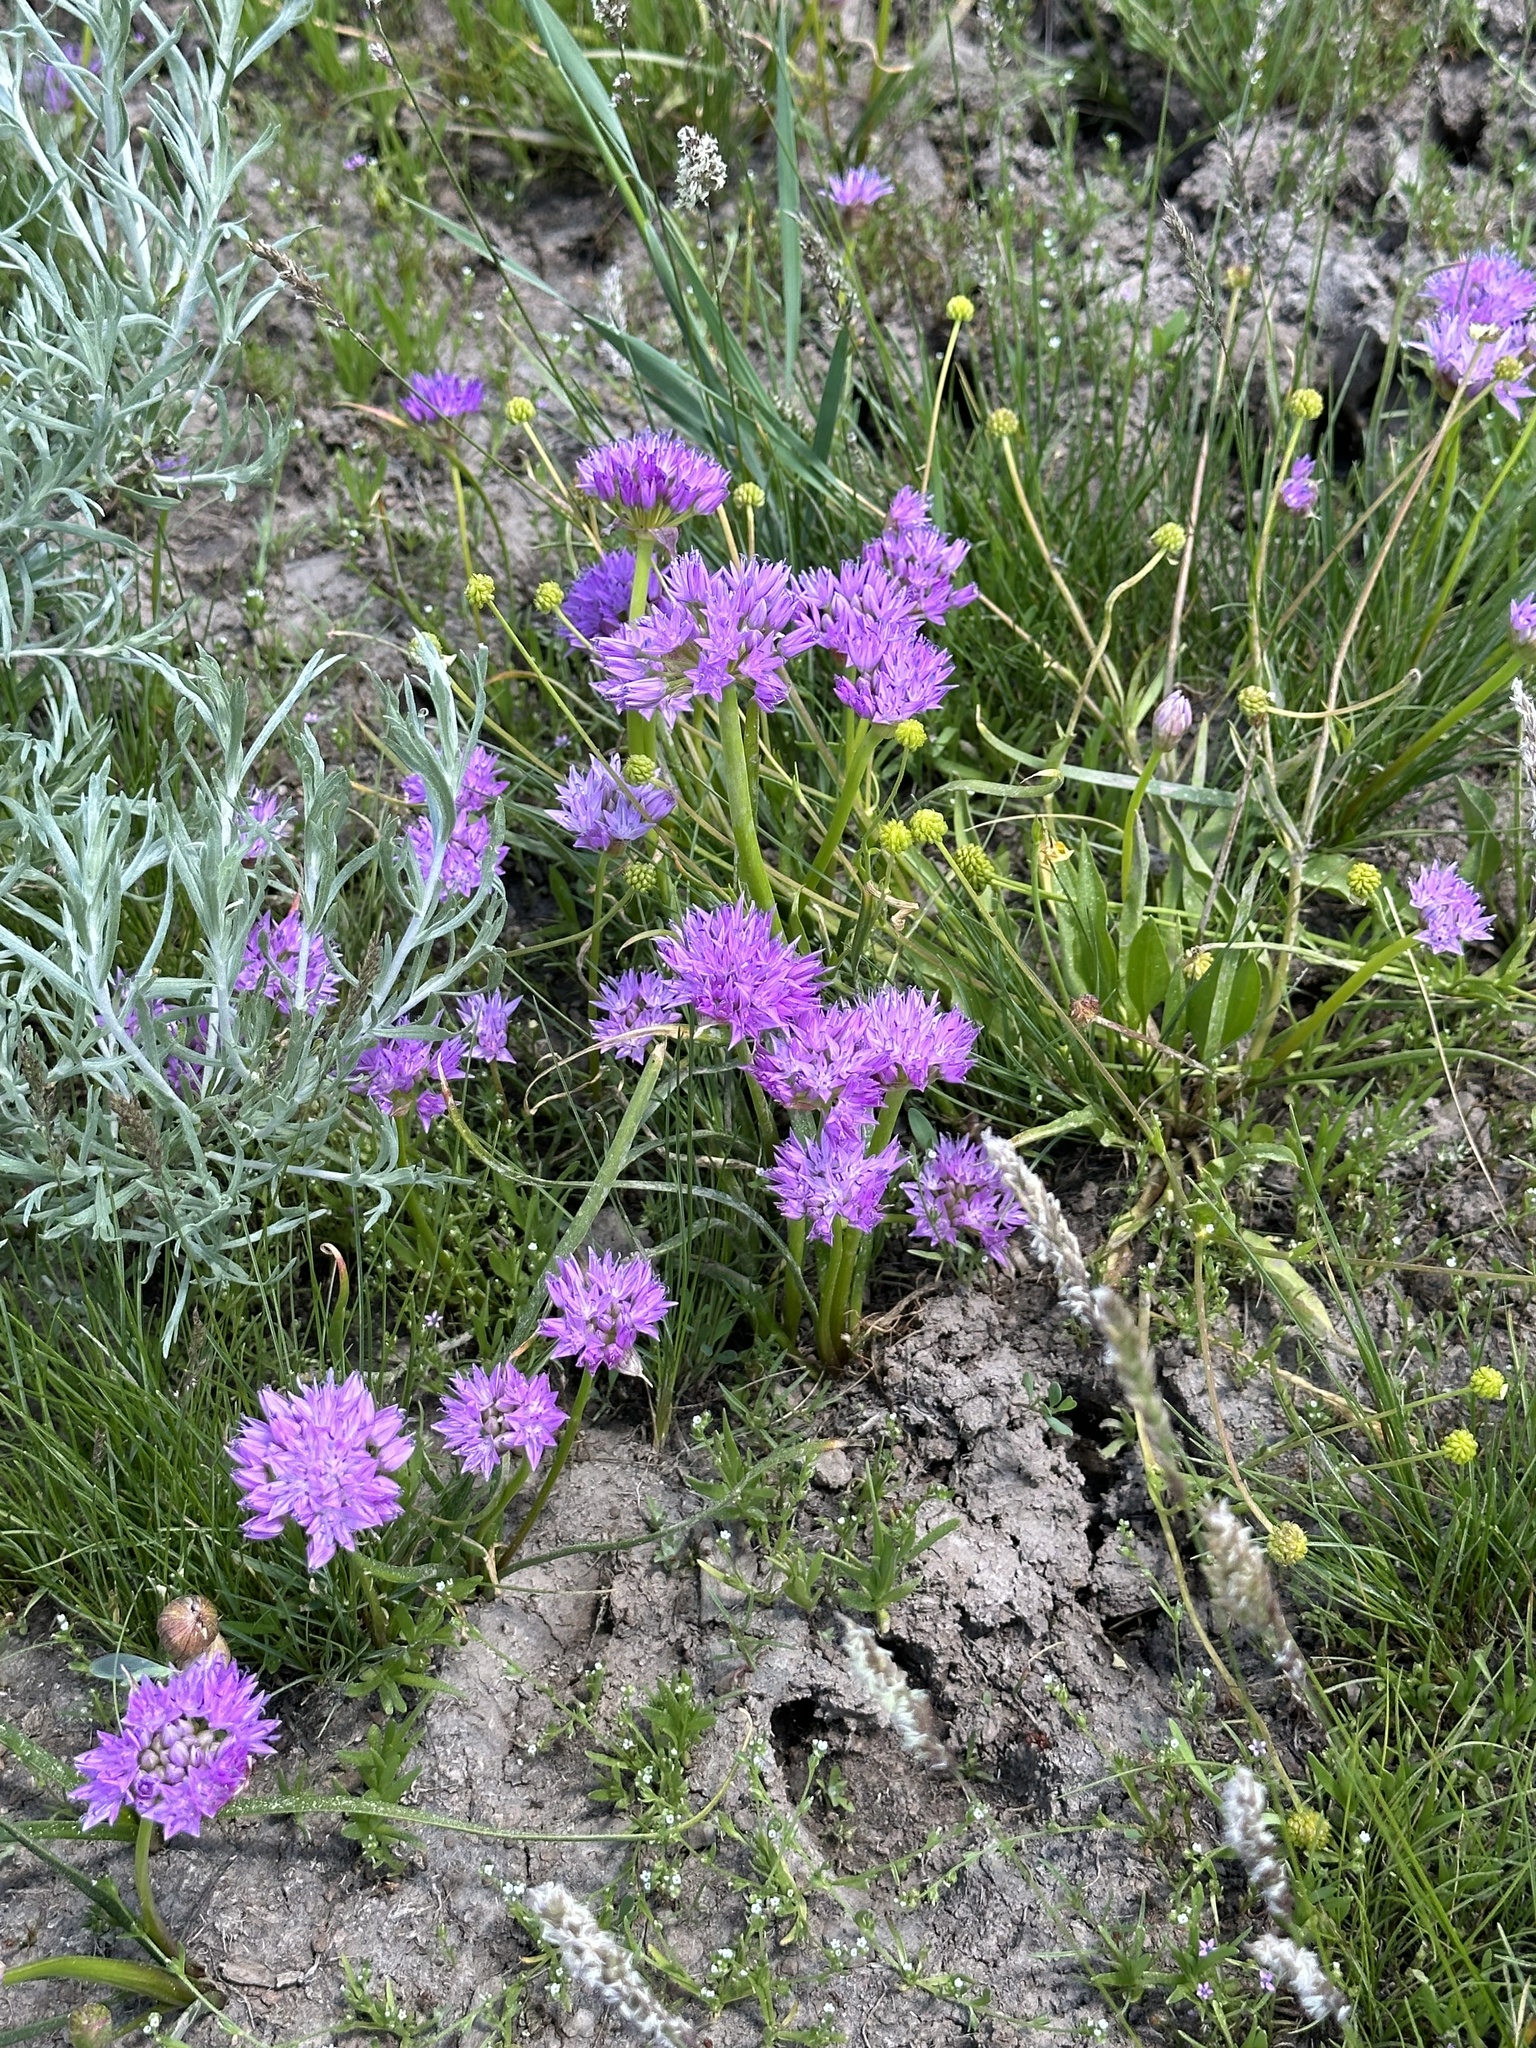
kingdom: Plantae
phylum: Tracheophyta
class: Liliopsida
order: Asparagales
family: Amaryllidaceae
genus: Allium
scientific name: Allium lemmonii
